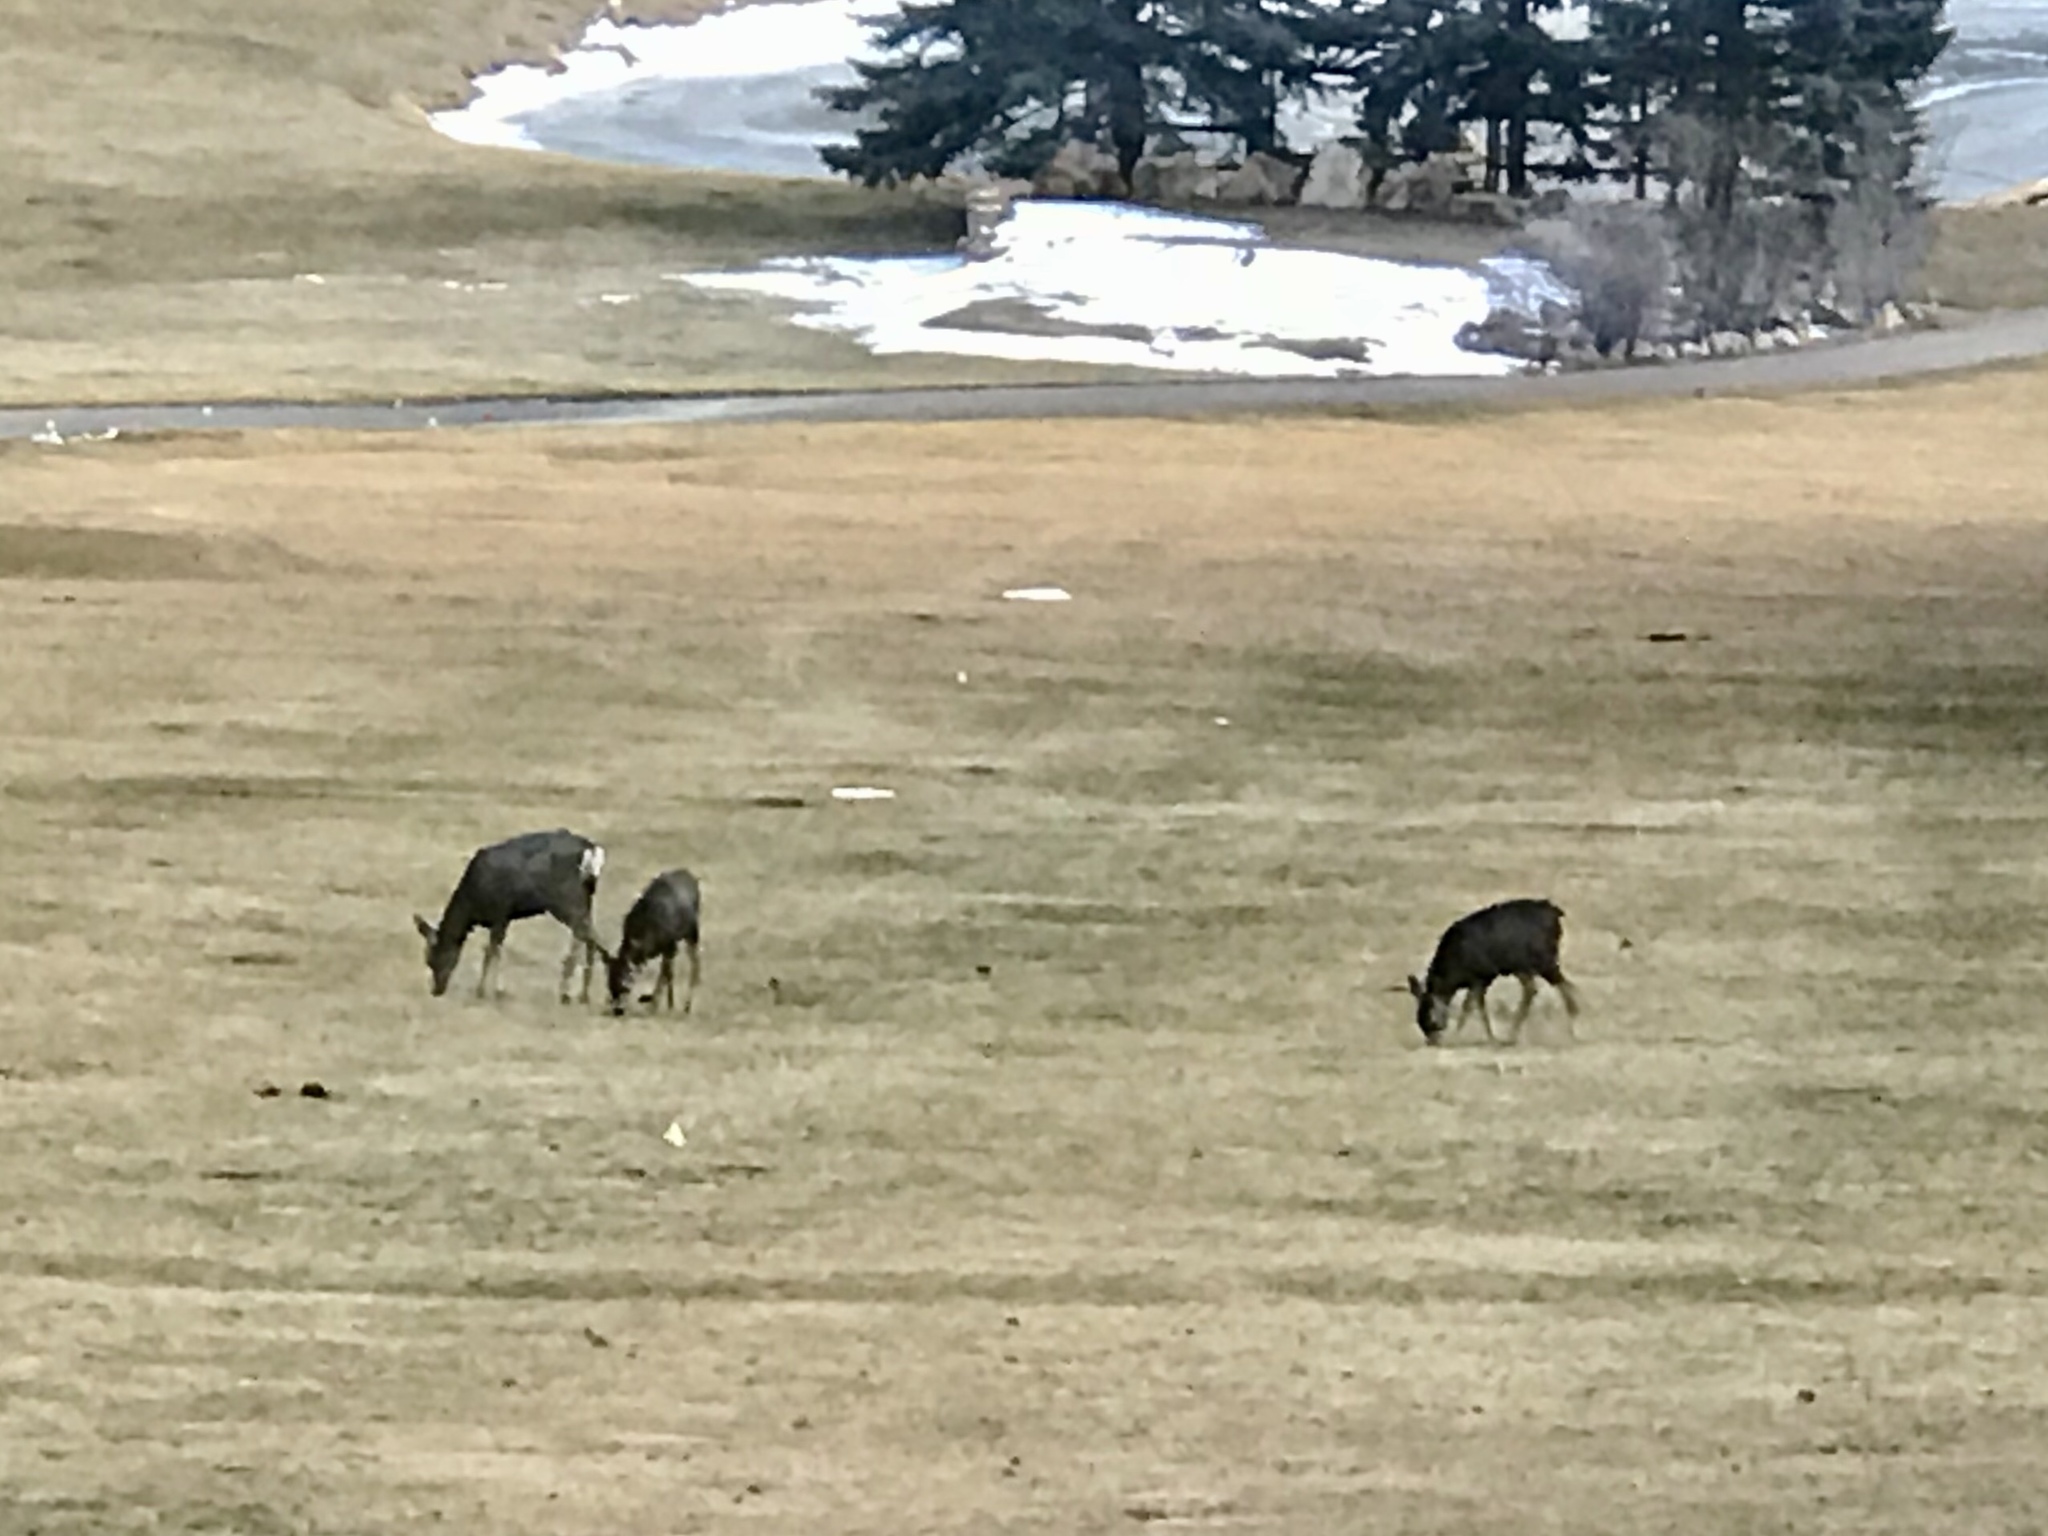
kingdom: Animalia
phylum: Chordata
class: Mammalia
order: Artiodactyla
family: Cervidae
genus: Odocoileus
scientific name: Odocoileus hemionus
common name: Mule deer
